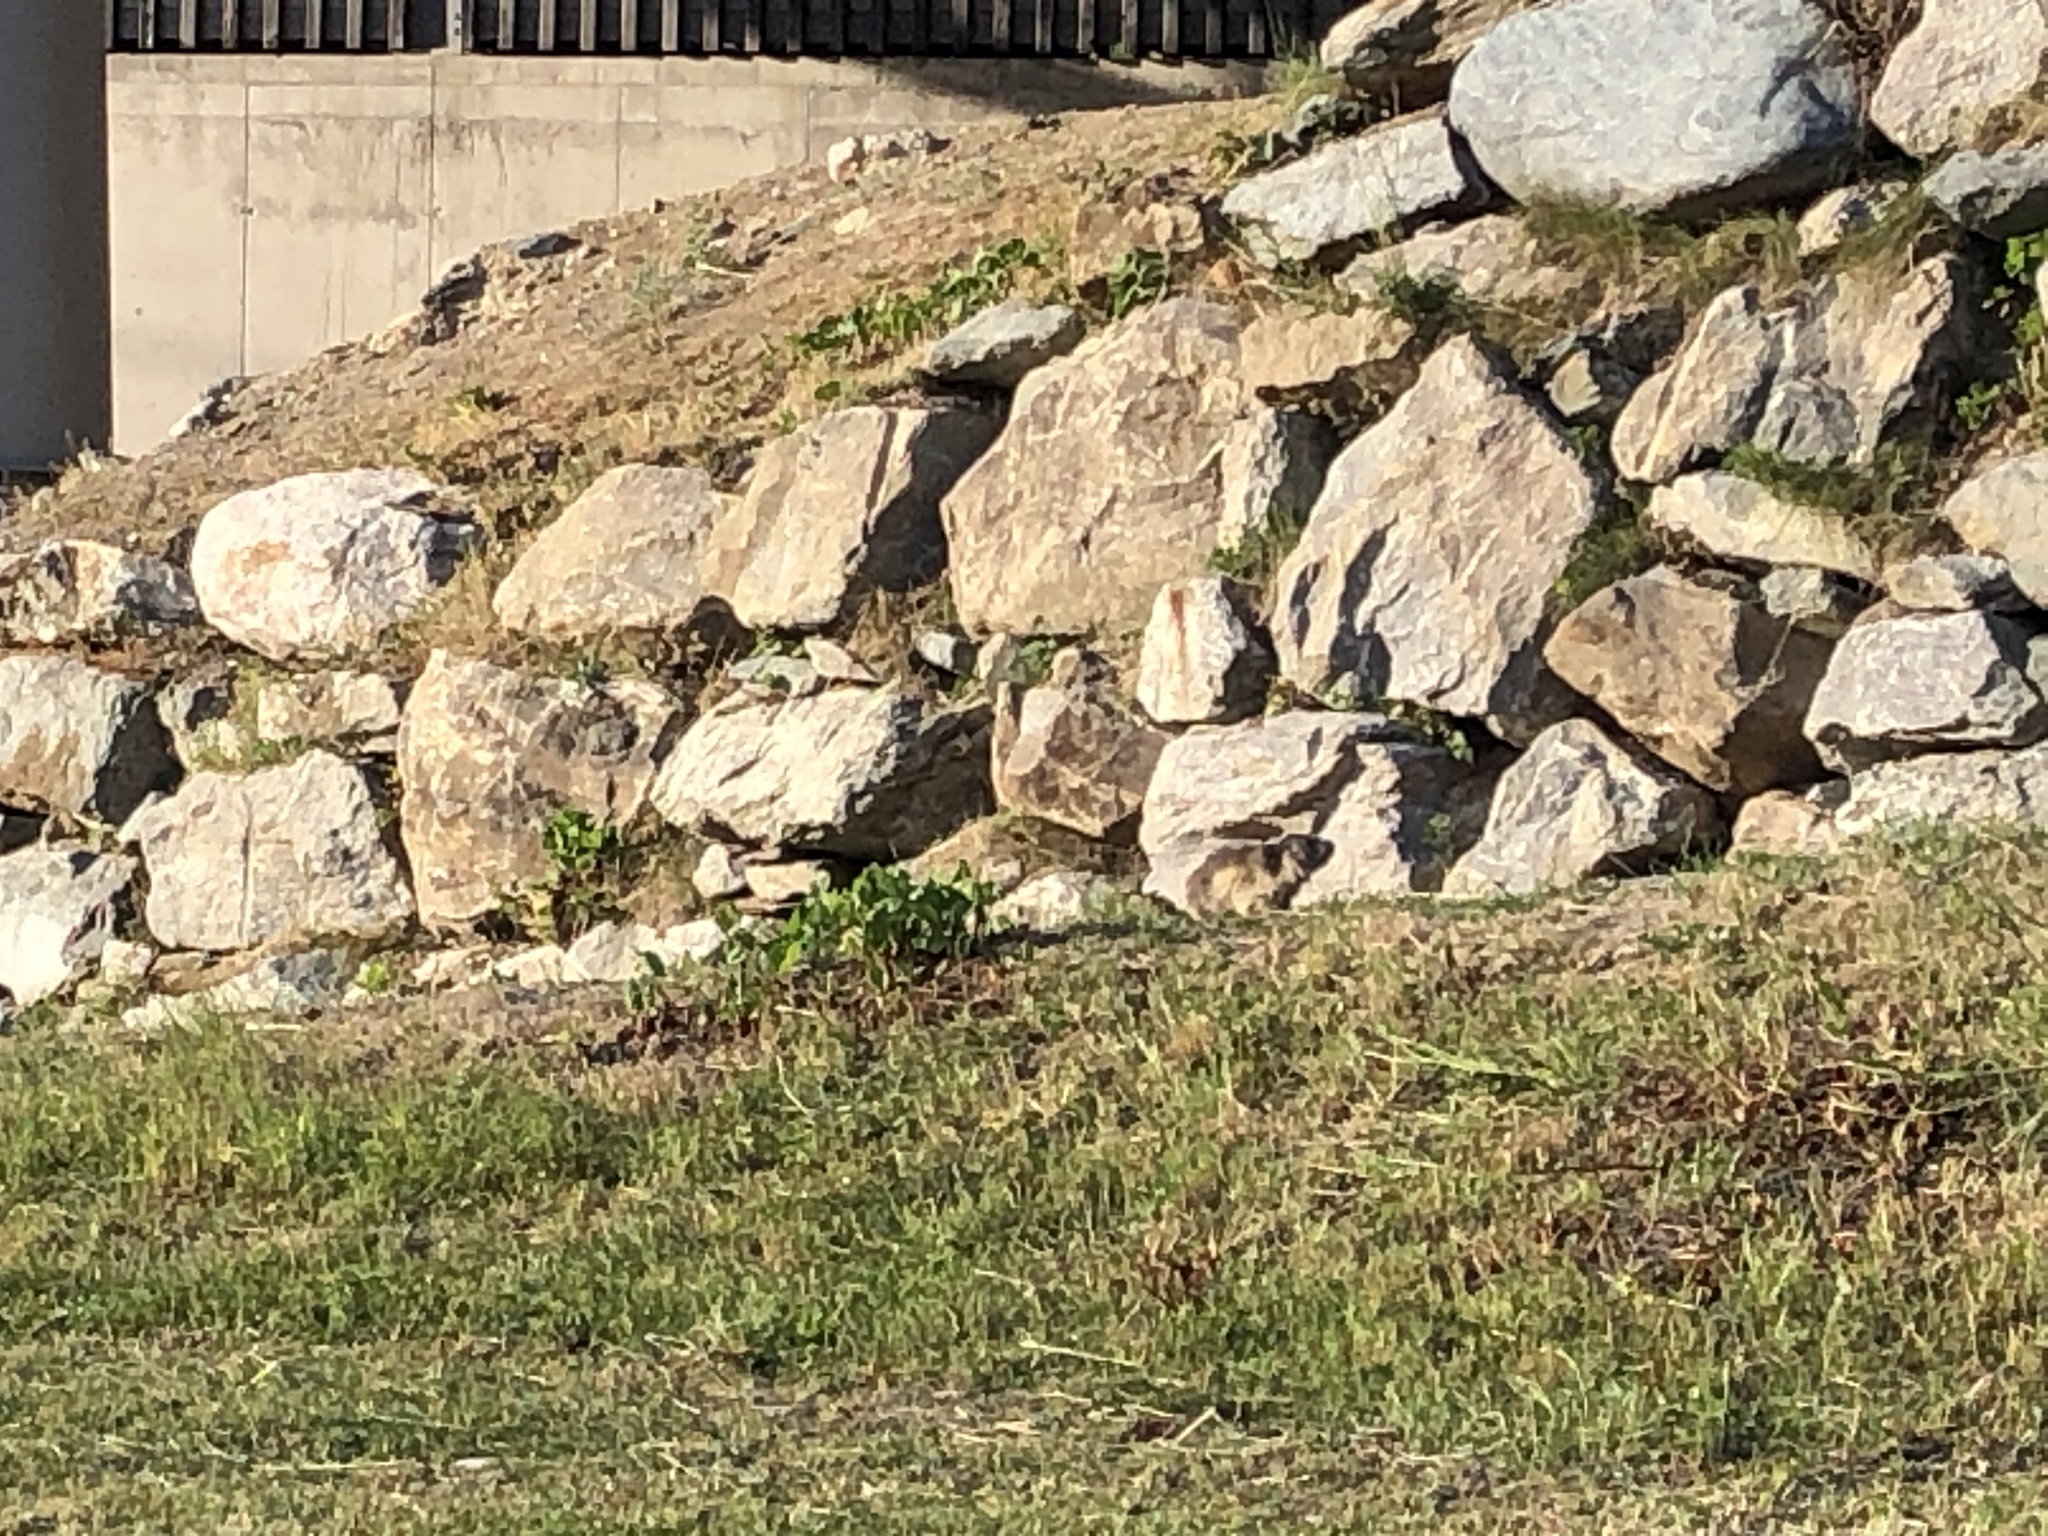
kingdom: Animalia
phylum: Chordata
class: Mammalia
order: Rodentia
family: Sciuridae
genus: Marmota
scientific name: Marmota marmota
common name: Alpine marmot
